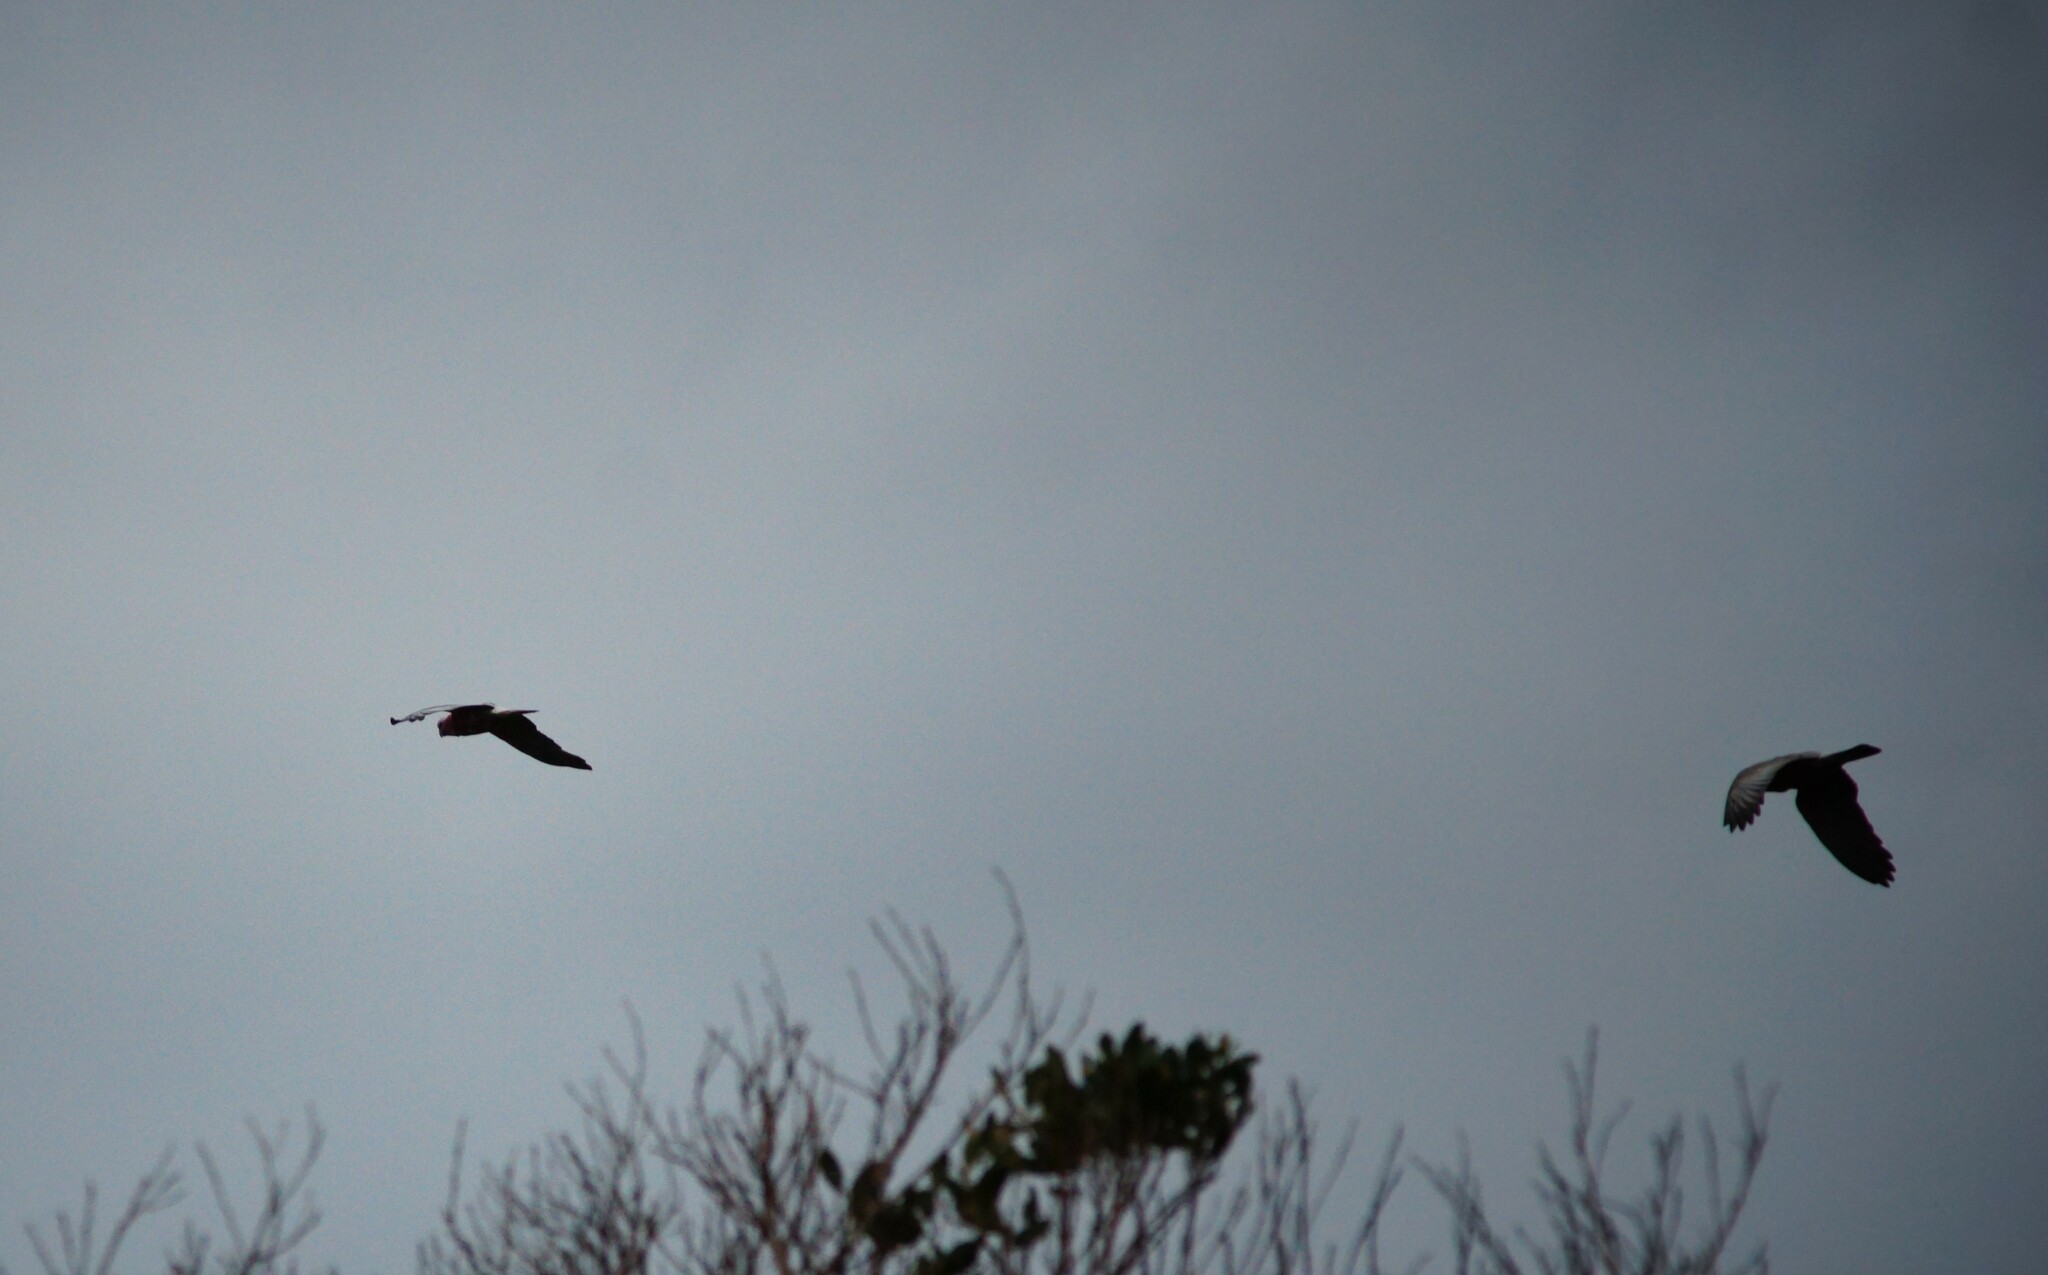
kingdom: Animalia
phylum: Chordata
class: Aves
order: Psittaciformes
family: Psittacidae
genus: Eolophus
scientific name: Eolophus roseicapilla
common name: Galah
